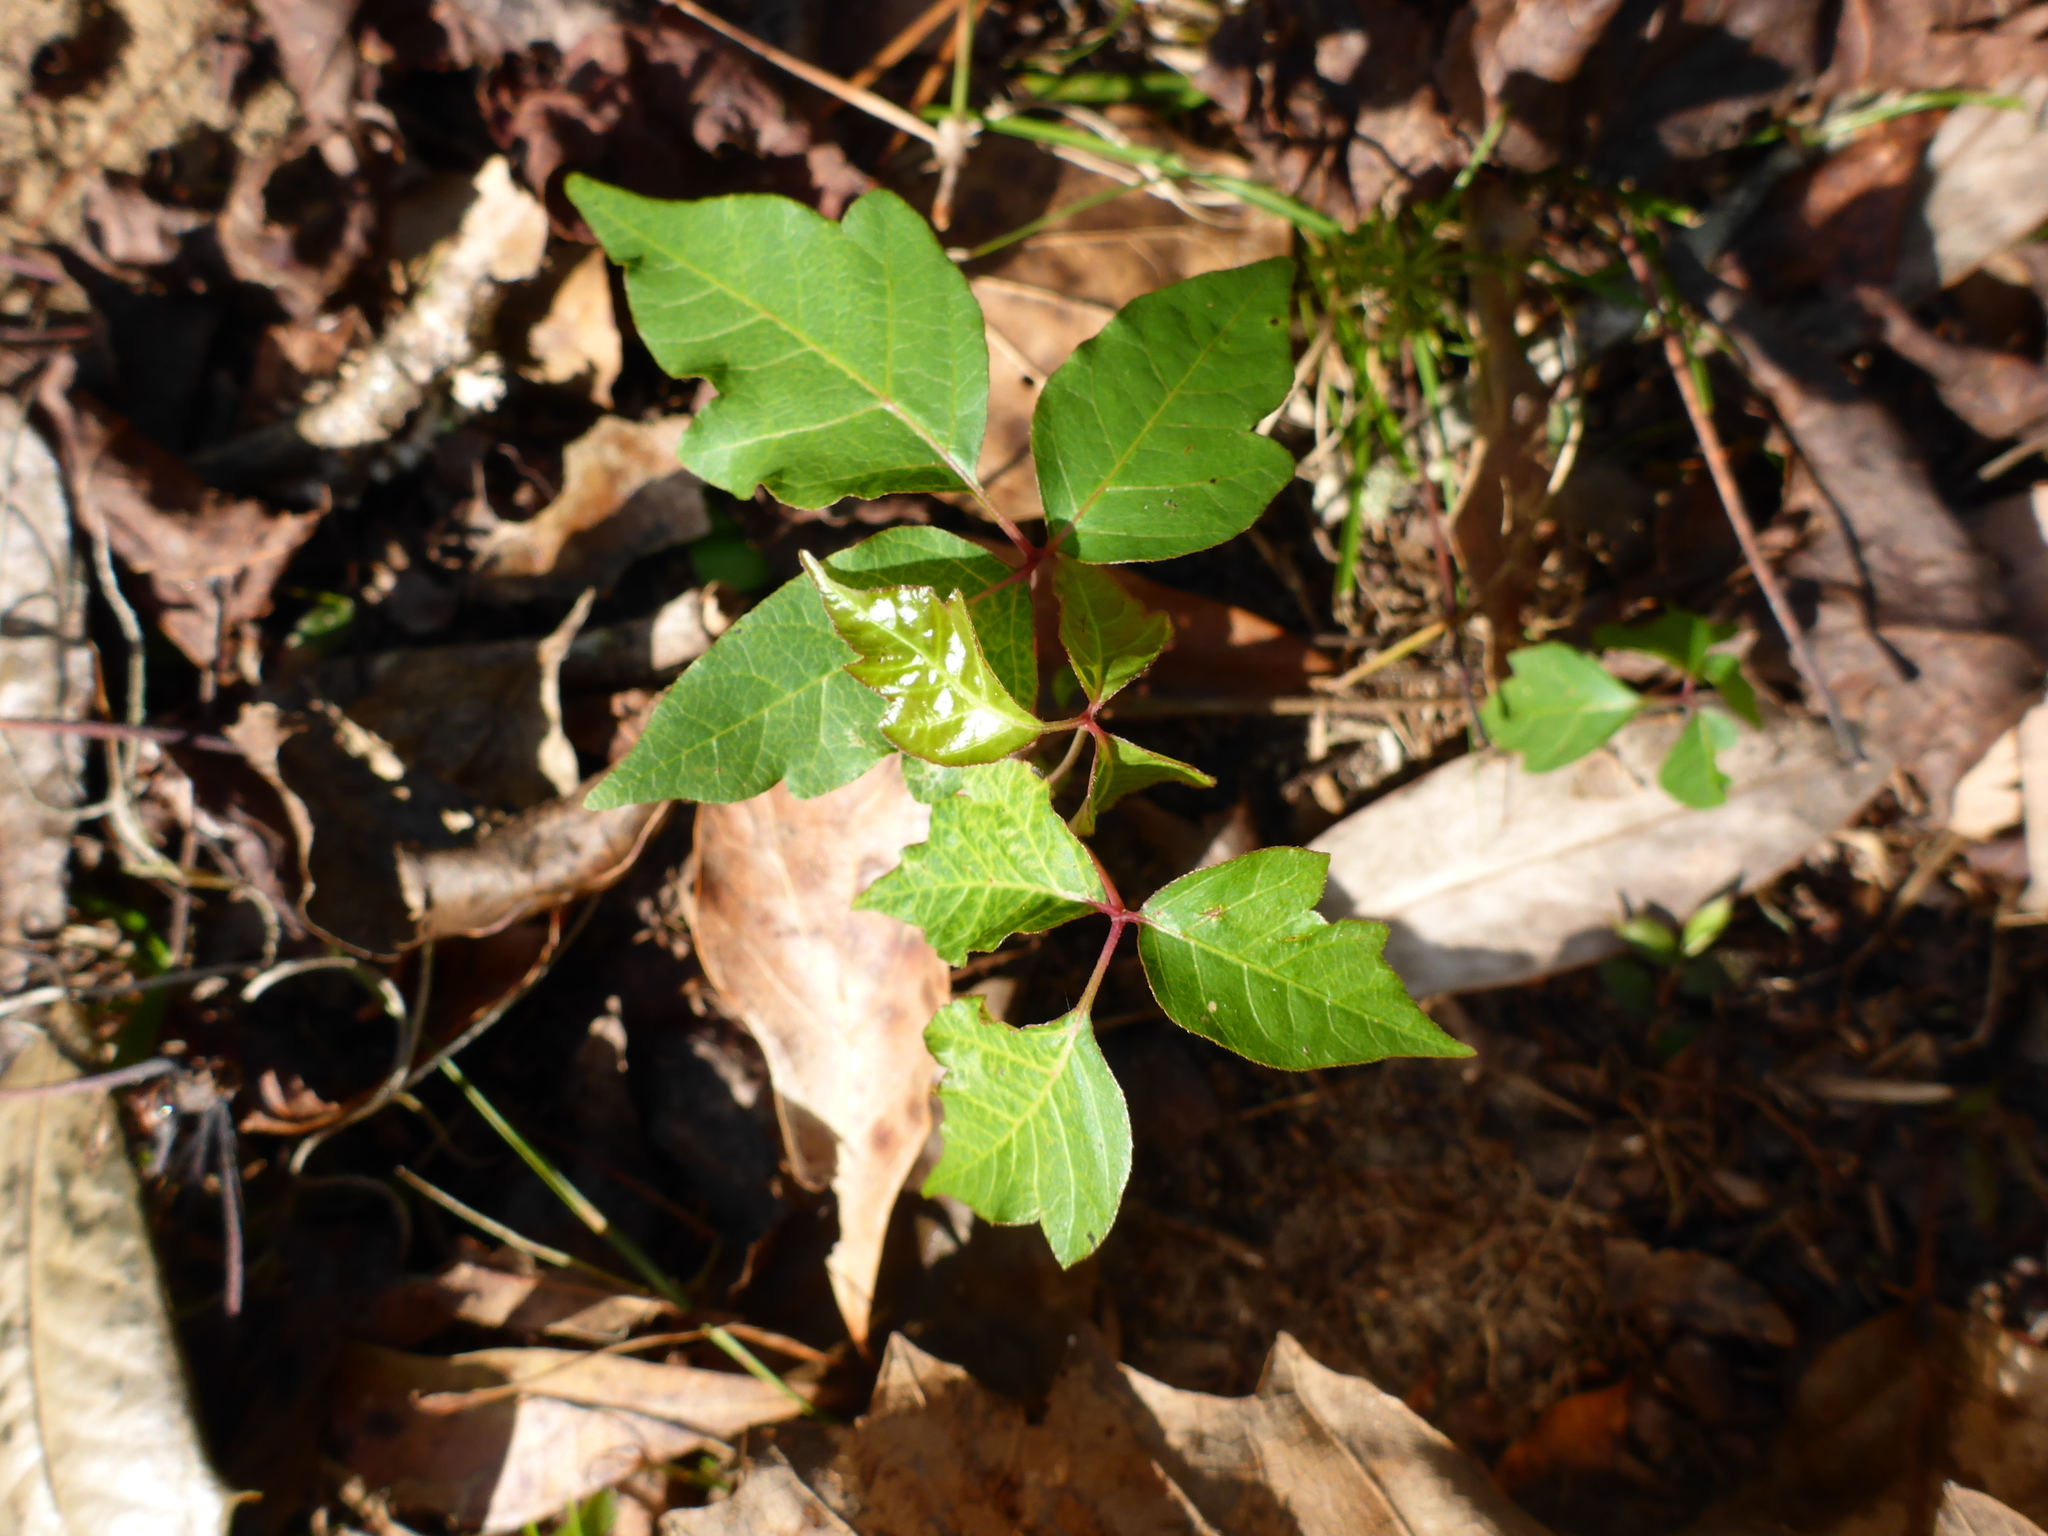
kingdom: Plantae
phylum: Tracheophyta
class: Magnoliopsida
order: Sapindales
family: Anacardiaceae
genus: Toxicodendron
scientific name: Toxicodendron radicans
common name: Poison ivy
